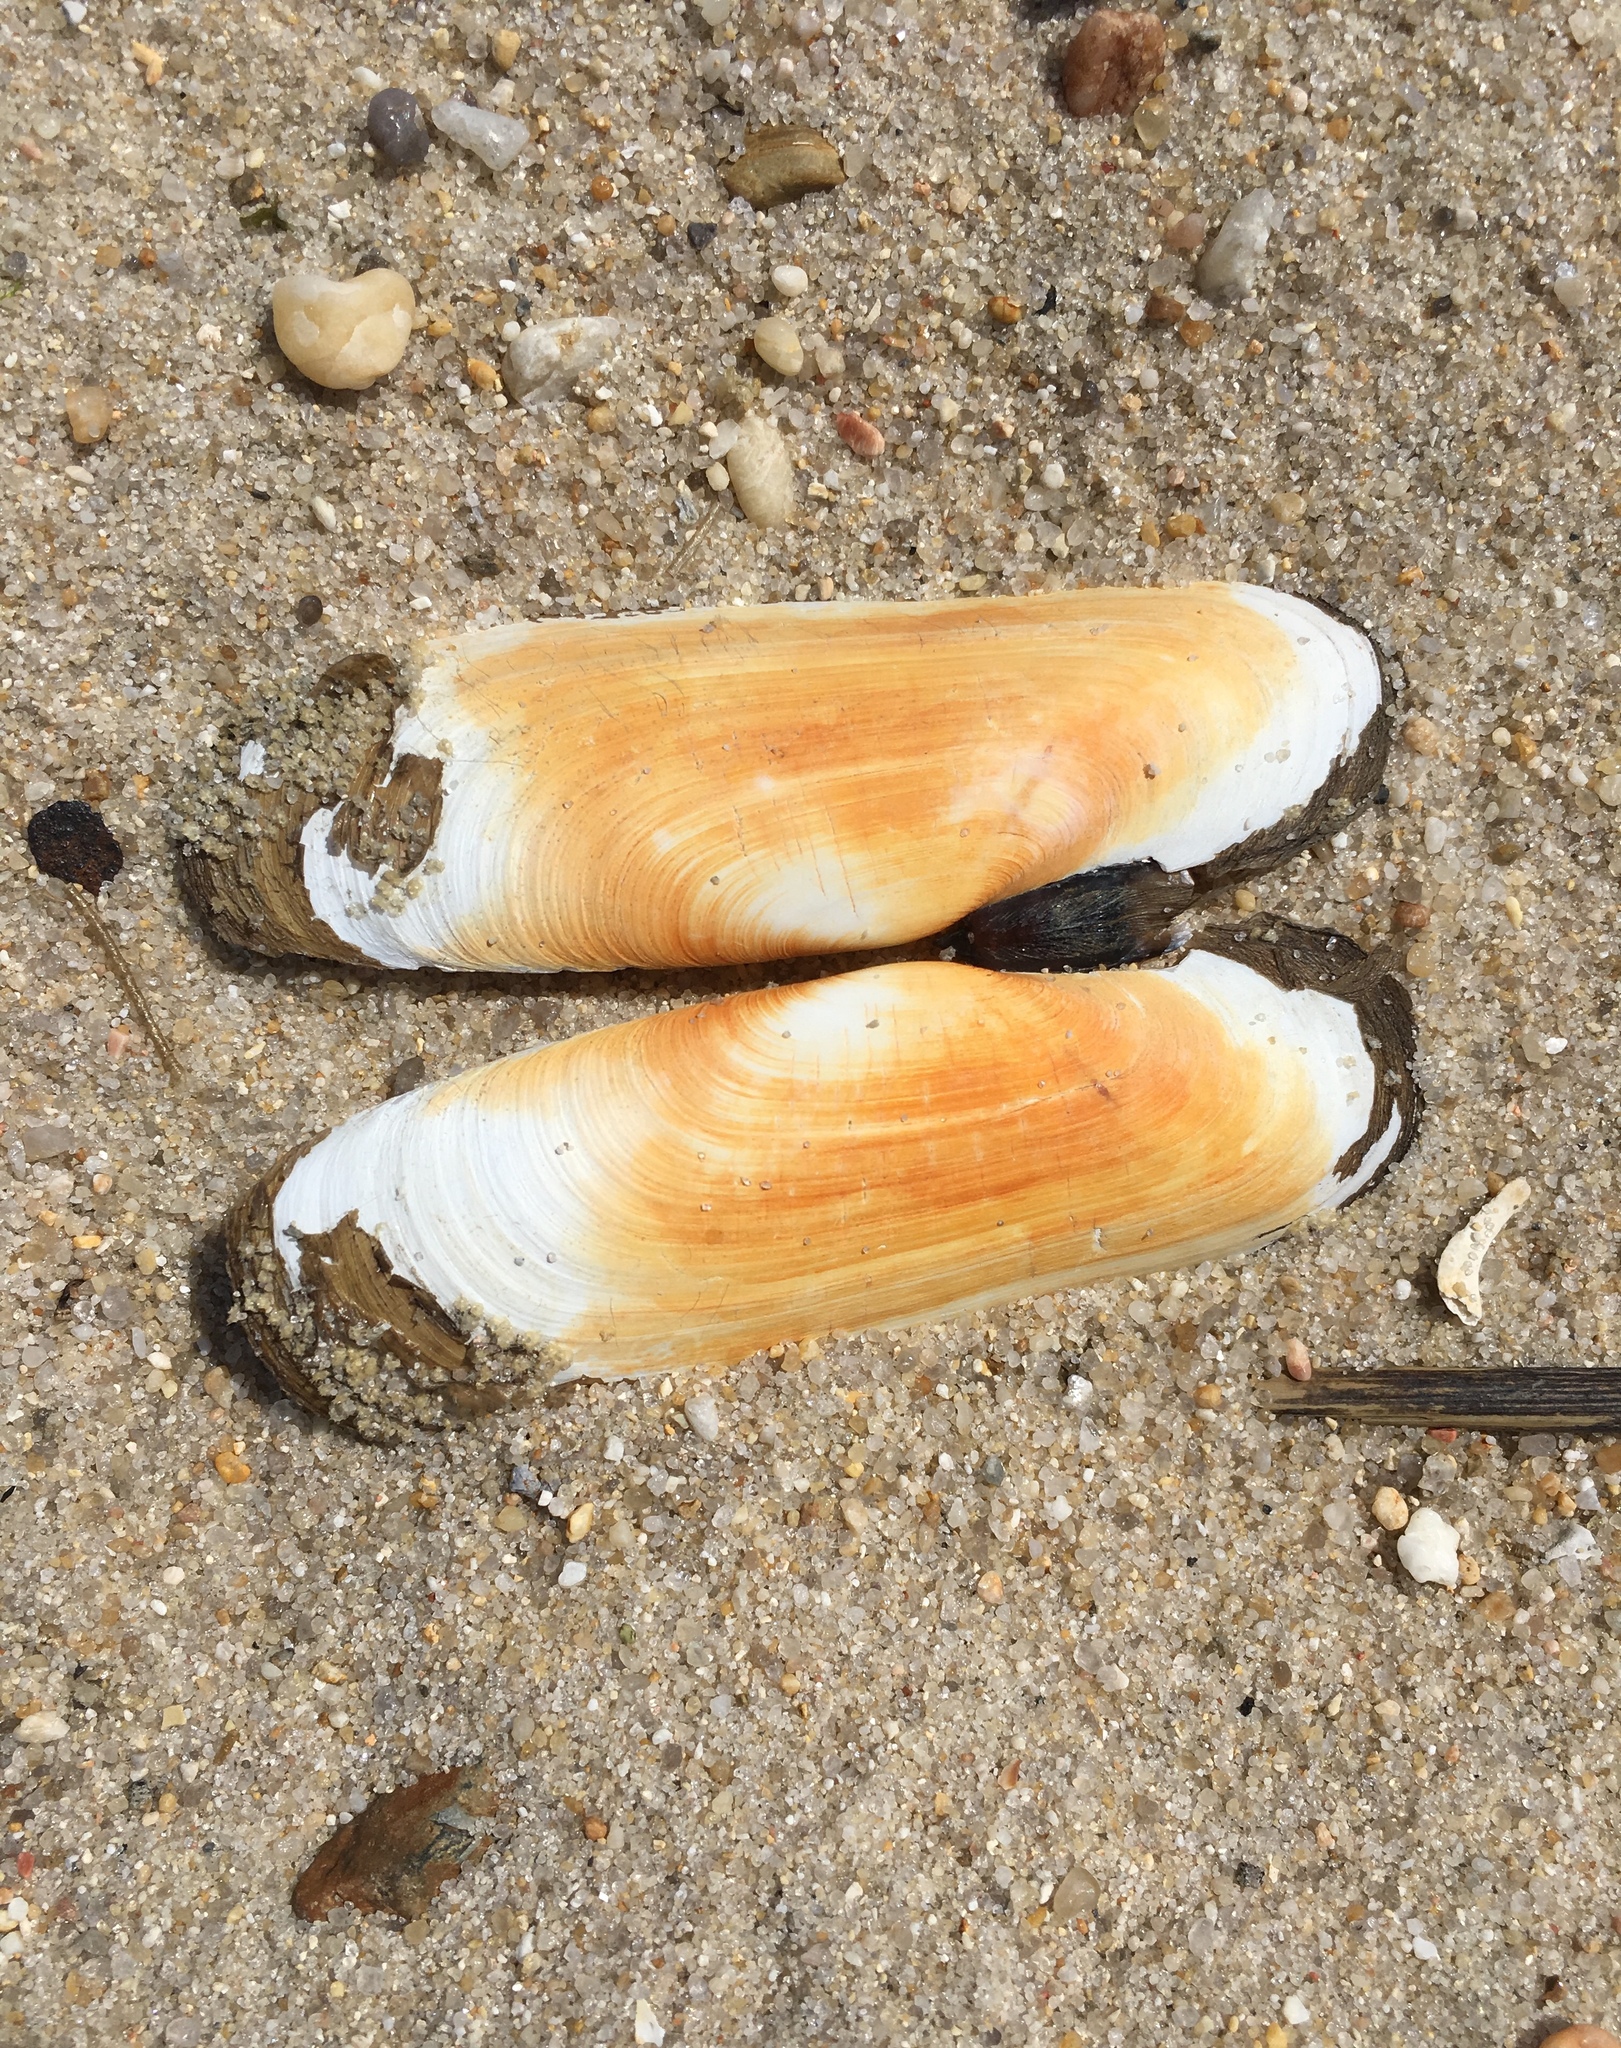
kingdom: Animalia
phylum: Mollusca
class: Bivalvia
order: Cardiida
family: Solecurtidae
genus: Tagelus
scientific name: Tagelus plebeius
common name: Stout tagelus
